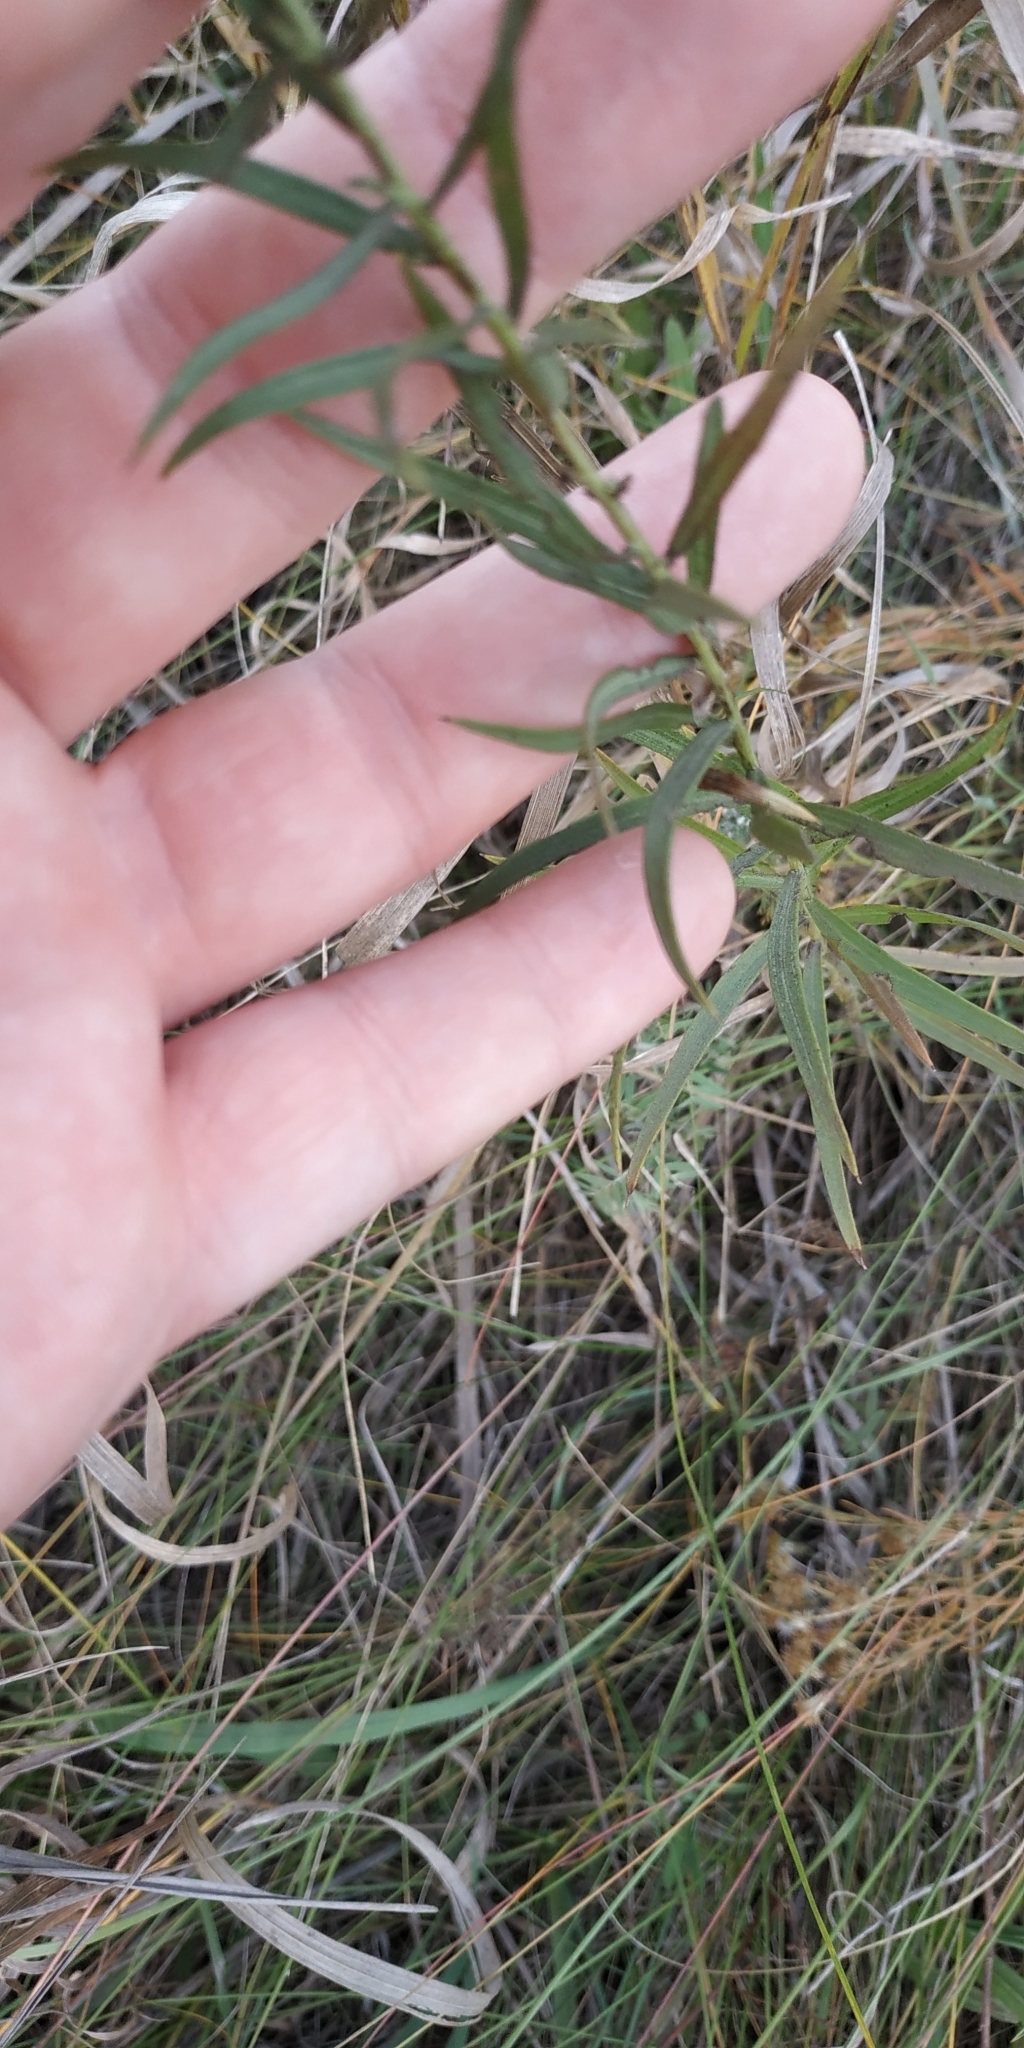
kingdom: Plantae
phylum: Tracheophyta
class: Magnoliopsida
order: Asterales
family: Asteraceae
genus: Galatella
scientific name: Galatella biflora
